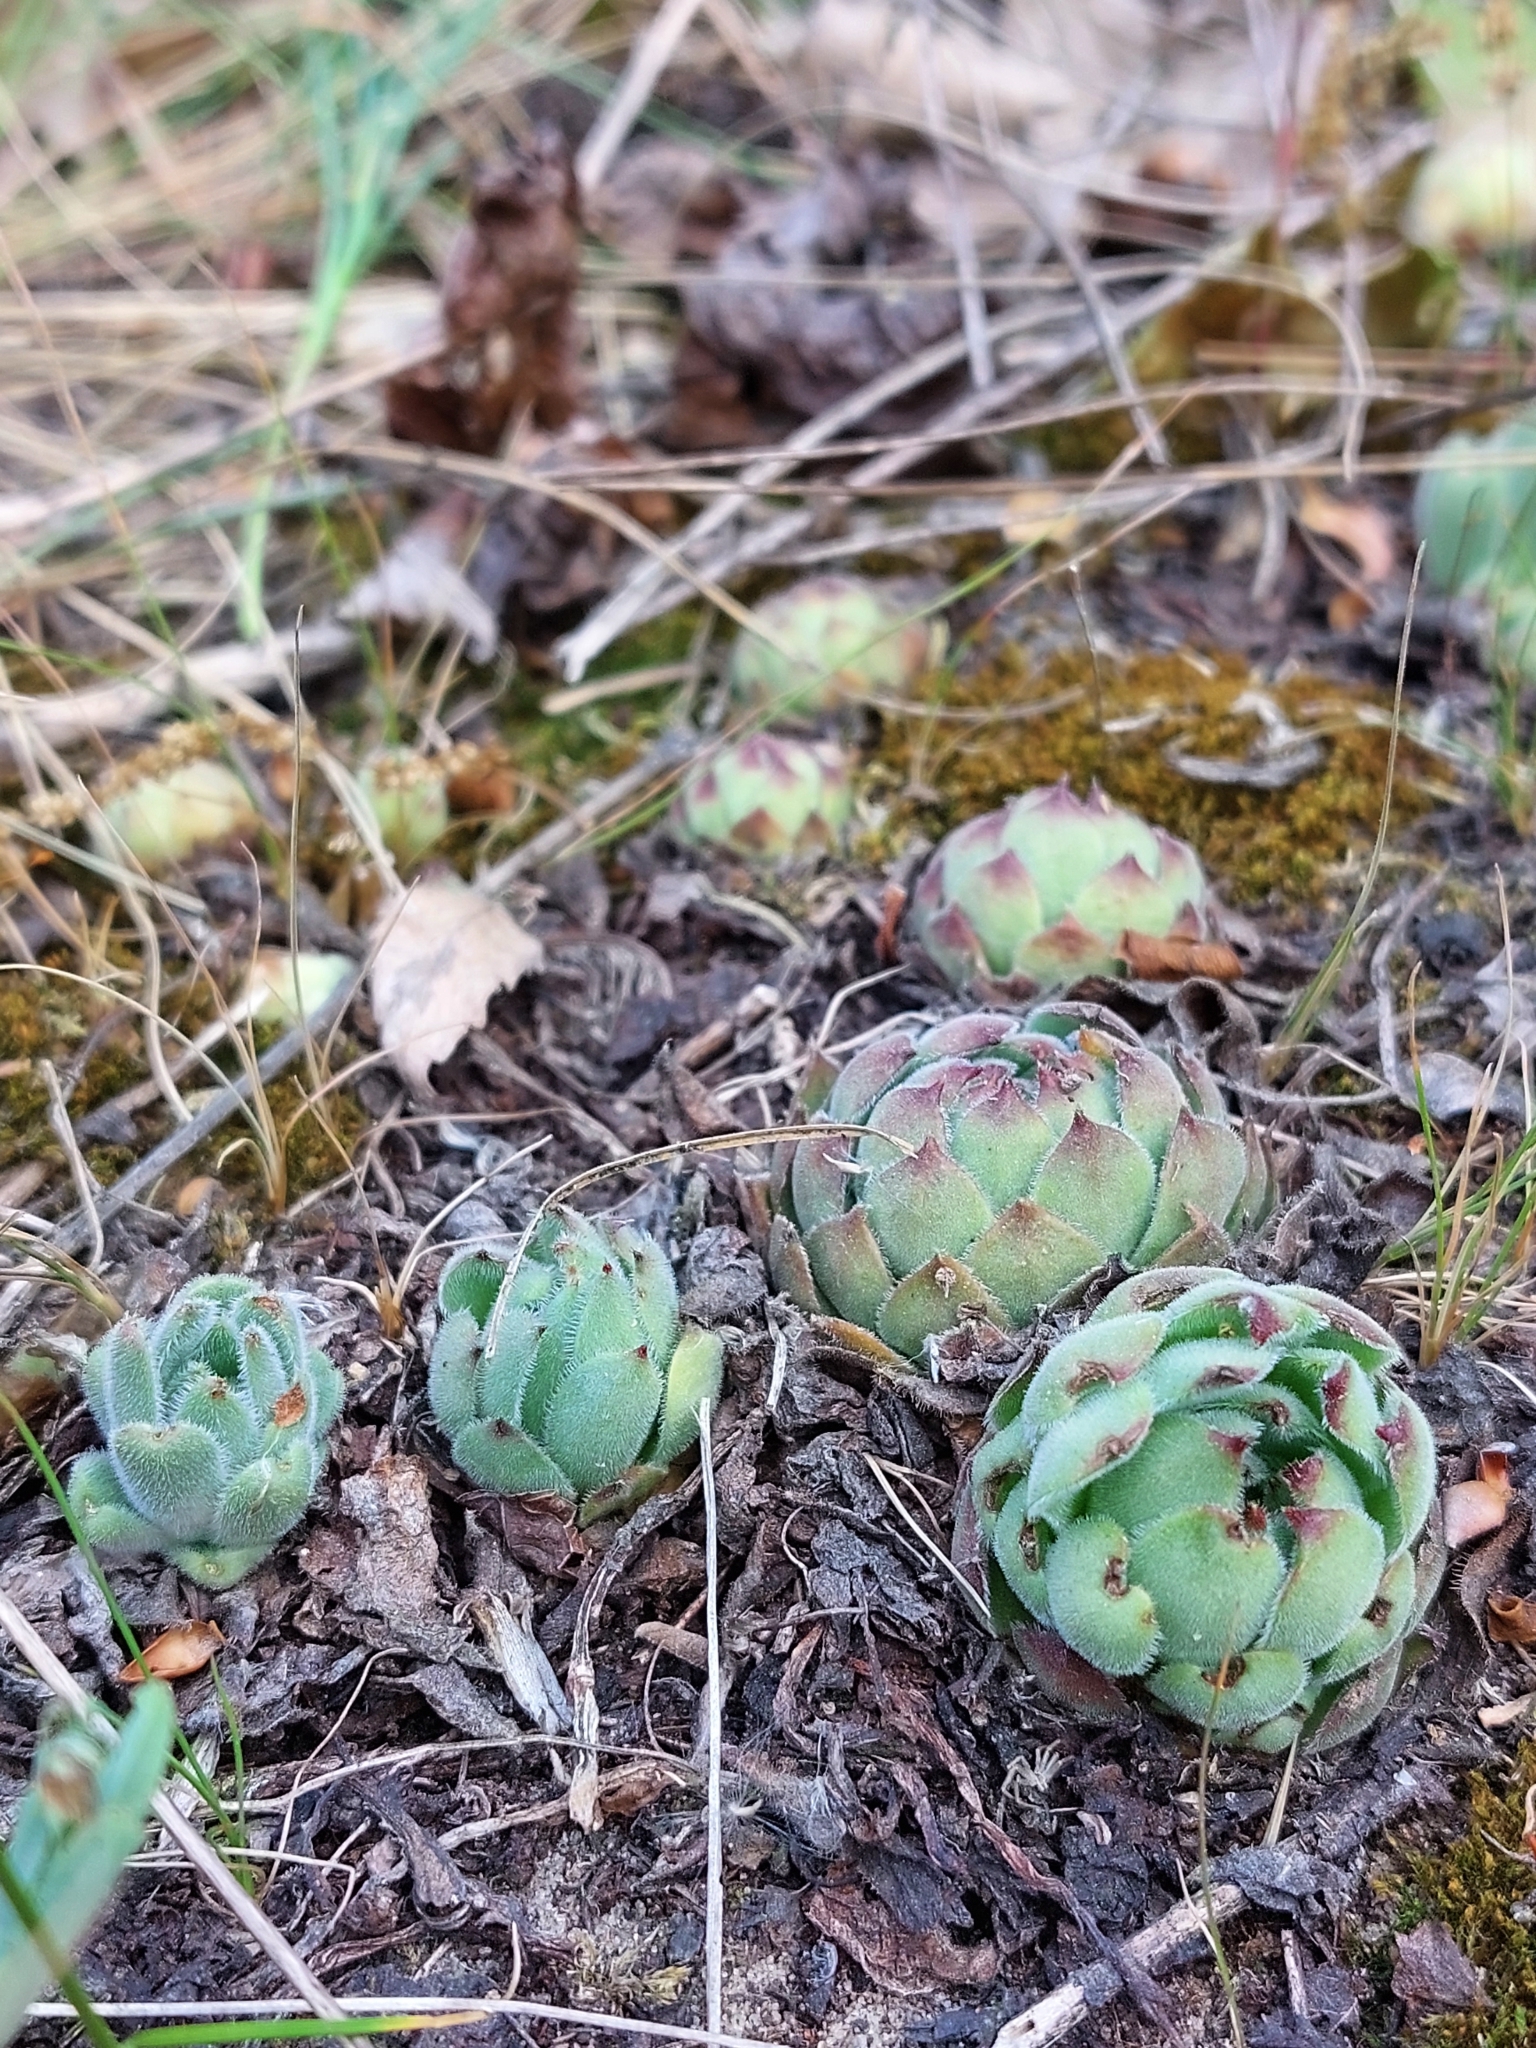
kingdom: Plantae
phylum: Tracheophyta
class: Magnoliopsida
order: Saxifragales
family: Crassulaceae
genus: Sempervivum
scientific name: Sempervivum ruthenicum
